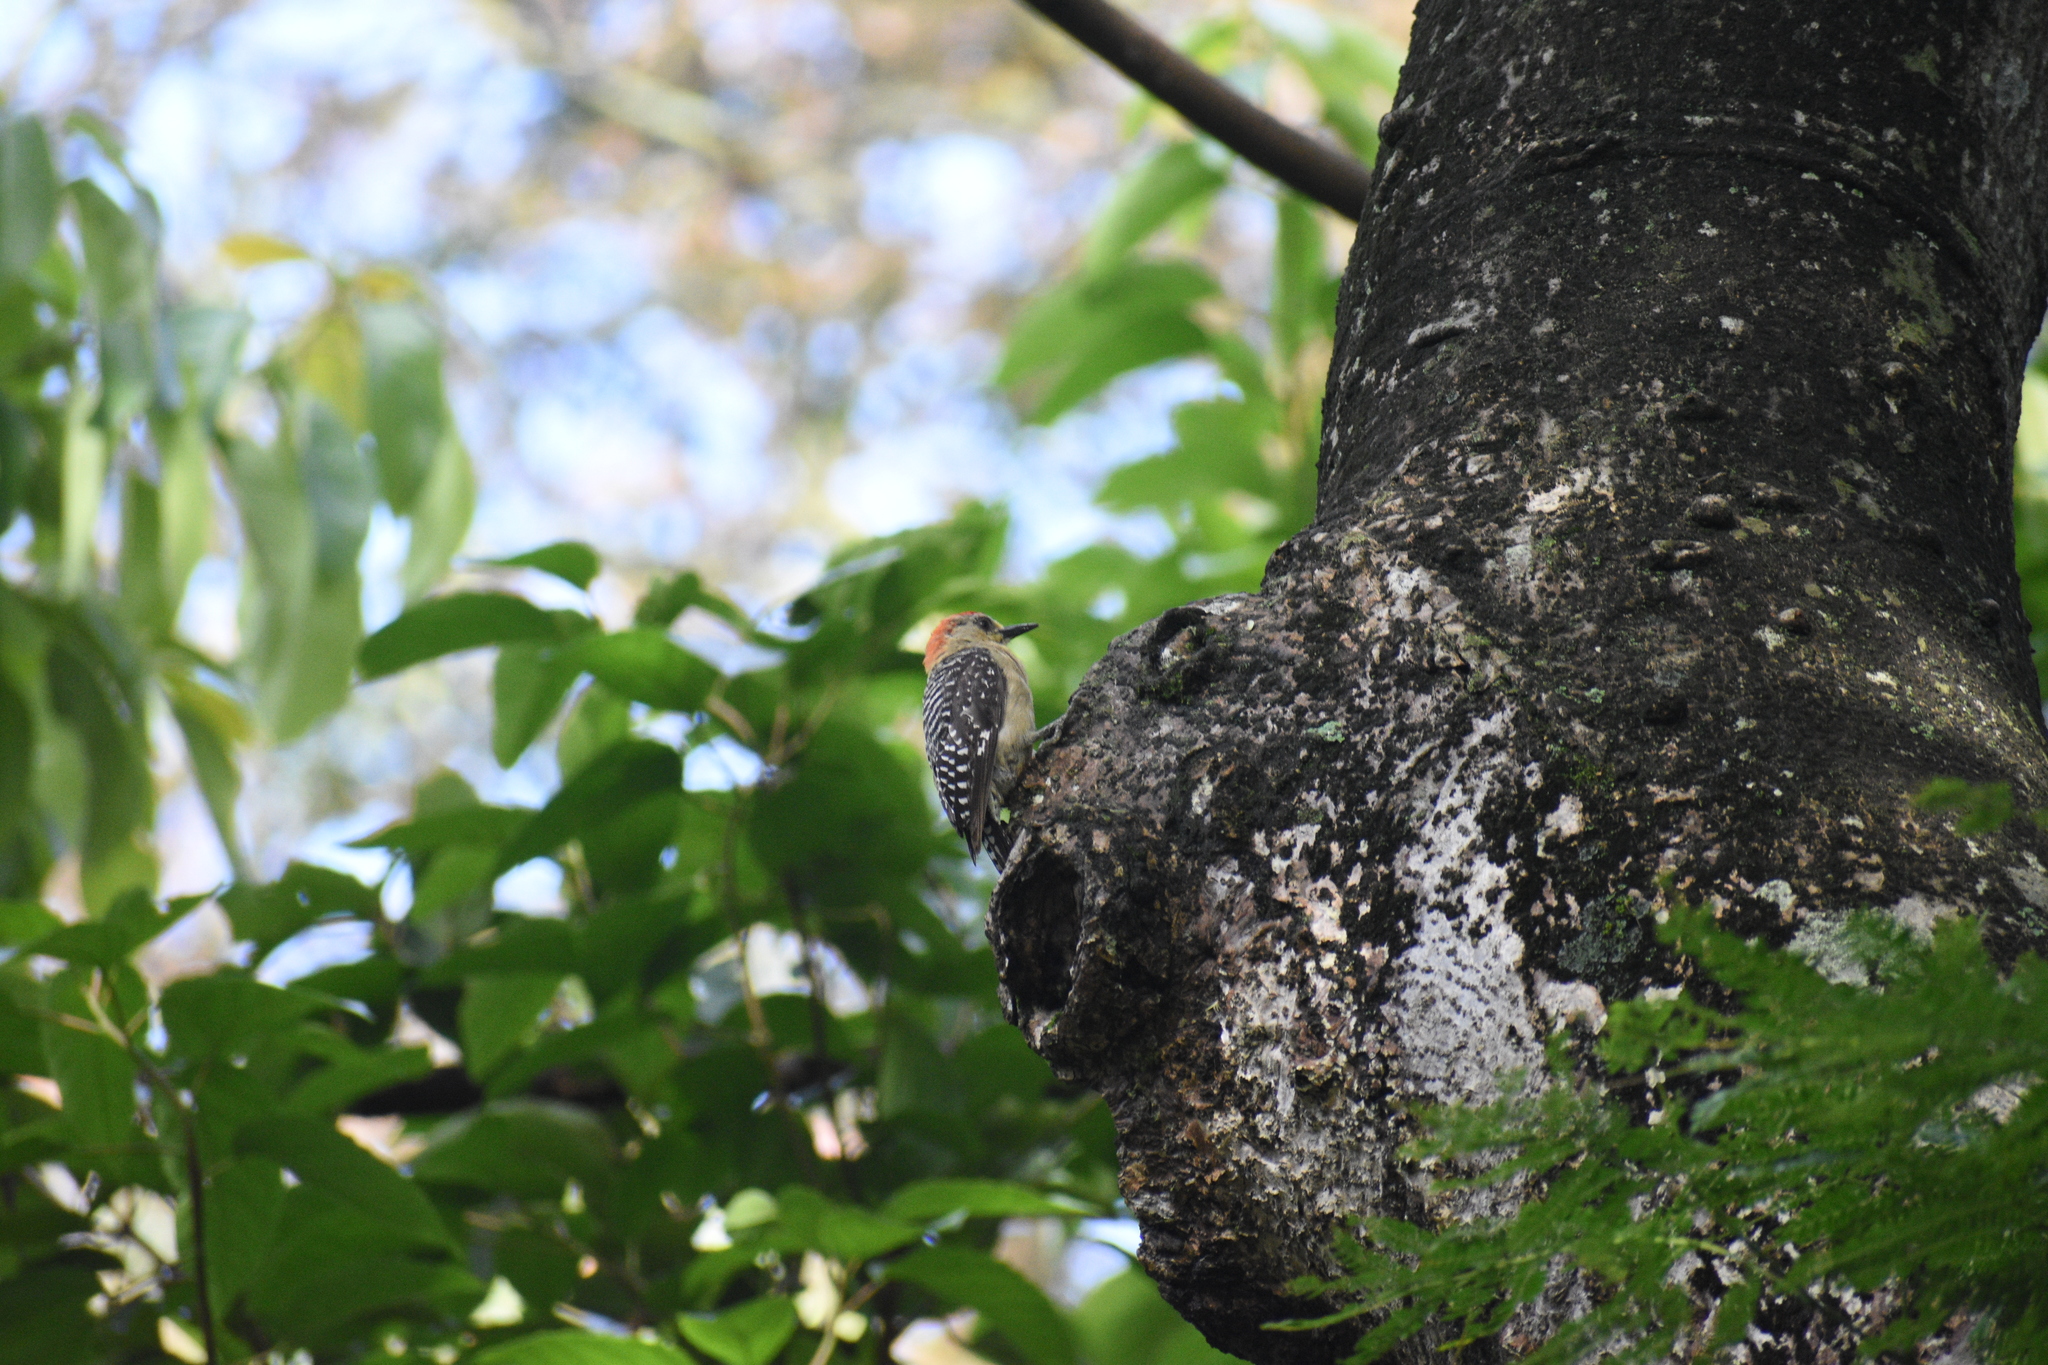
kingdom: Animalia
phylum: Chordata
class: Aves
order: Piciformes
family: Picidae
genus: Melanerpes
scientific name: Melanerpes rubricapillus
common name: Red-crowned woodpecker
